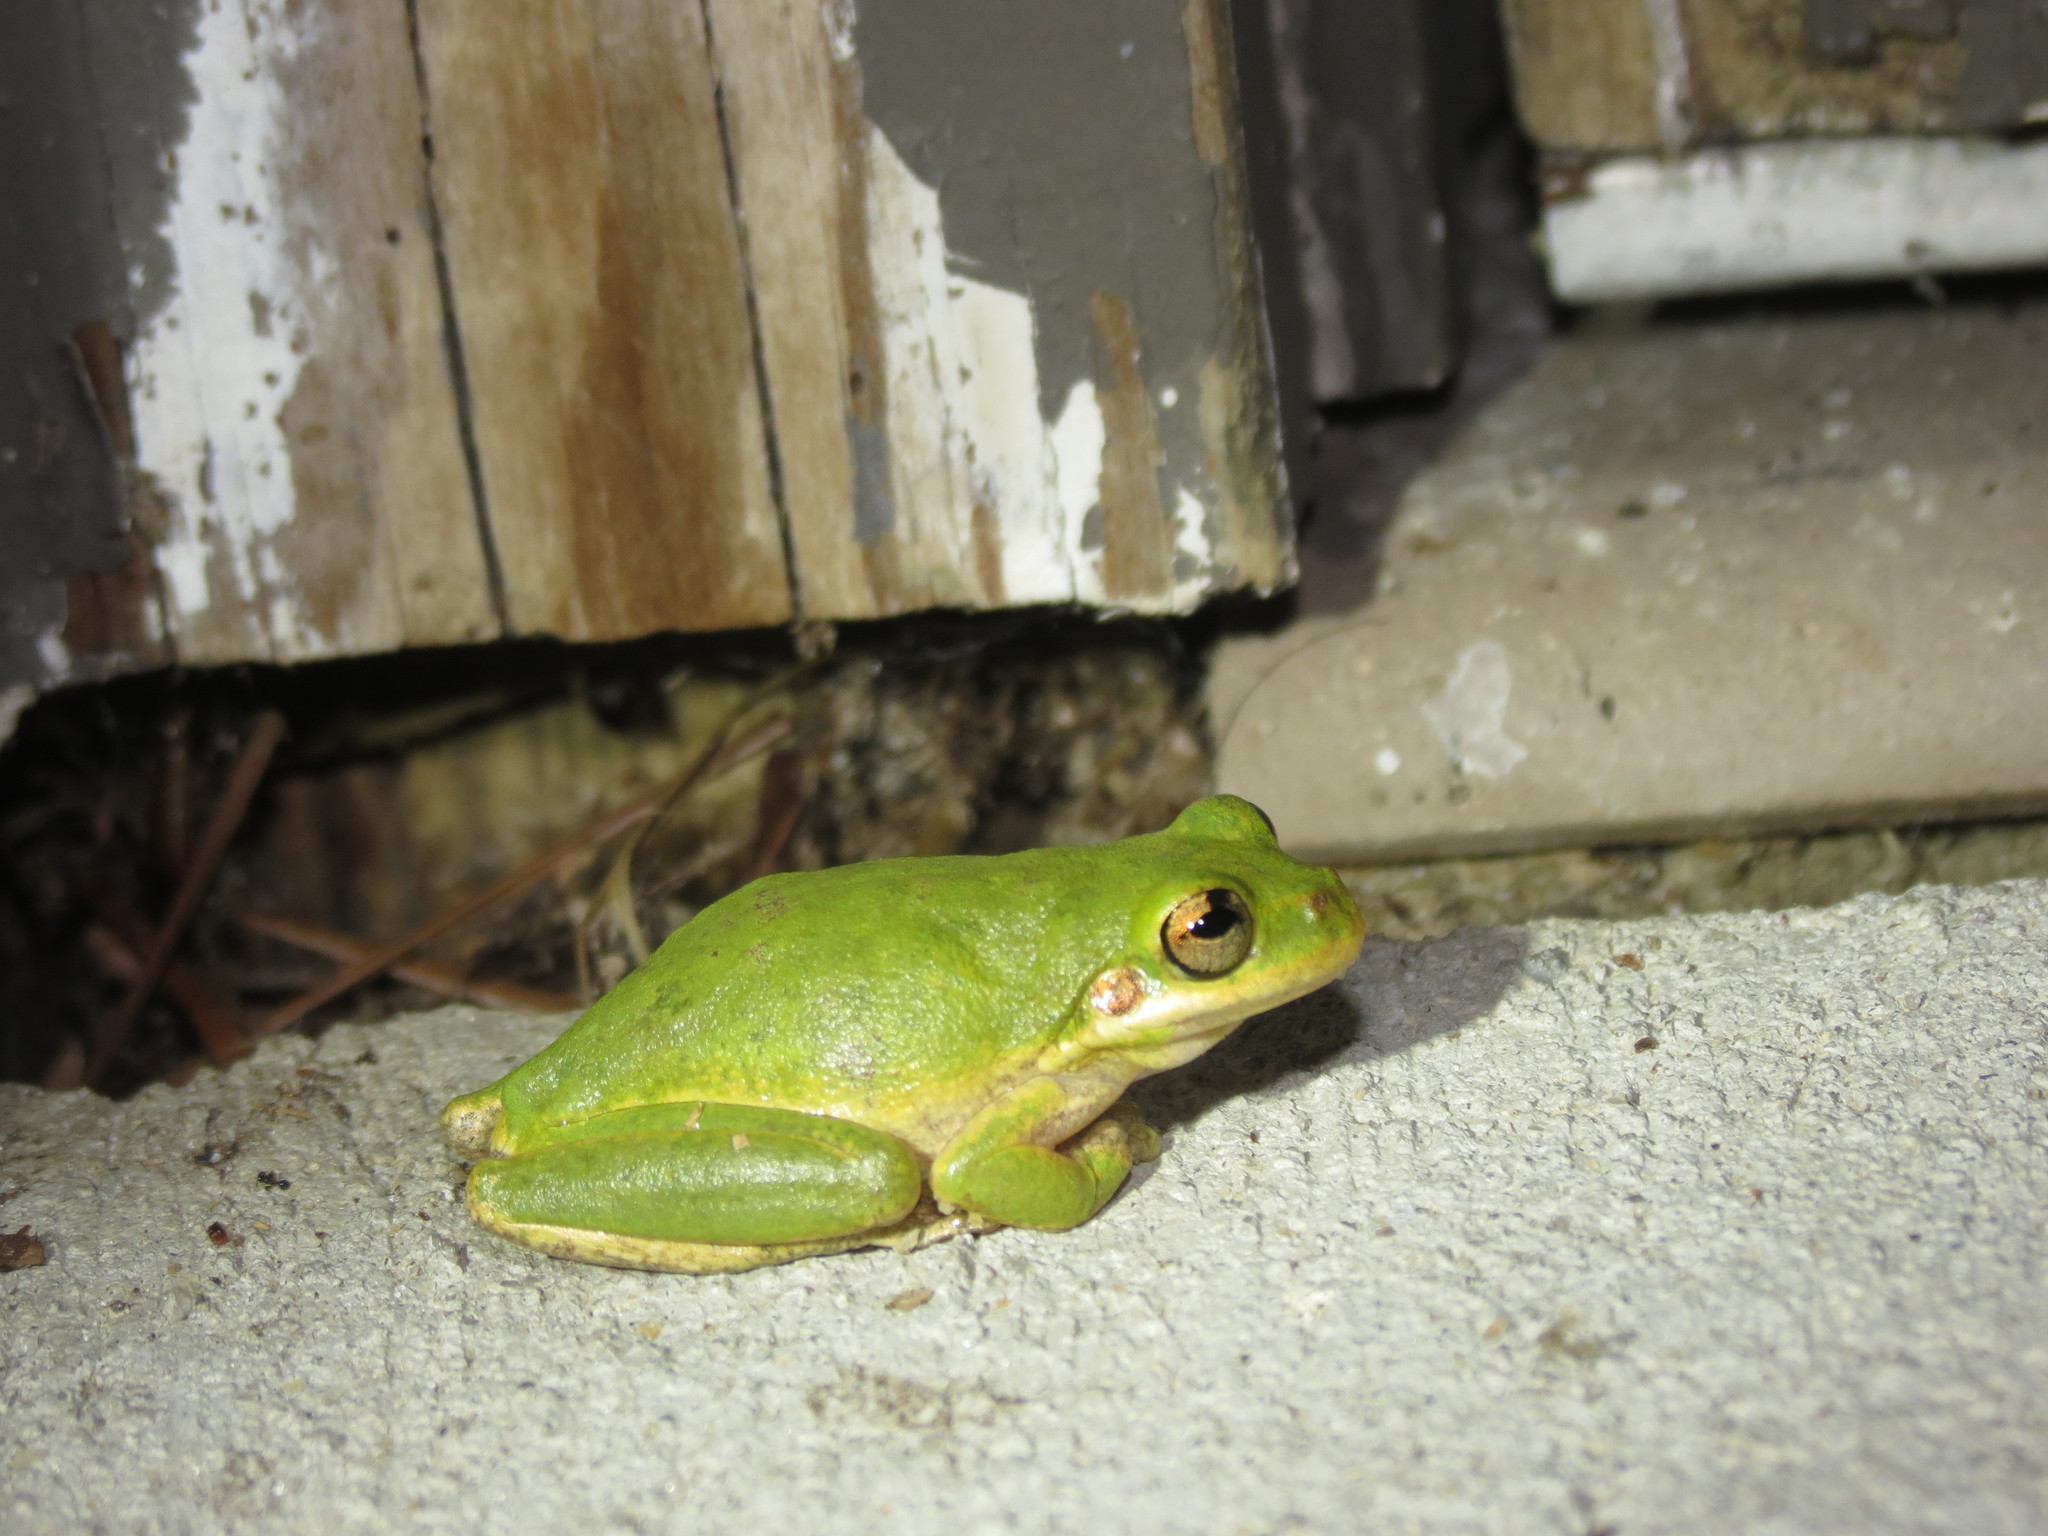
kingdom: Animalia
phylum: Chordata
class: Amphibia
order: Anura
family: Hylidae
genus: Dryophytes
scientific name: Dryophytes squirellus
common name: Squirrel treefrog
